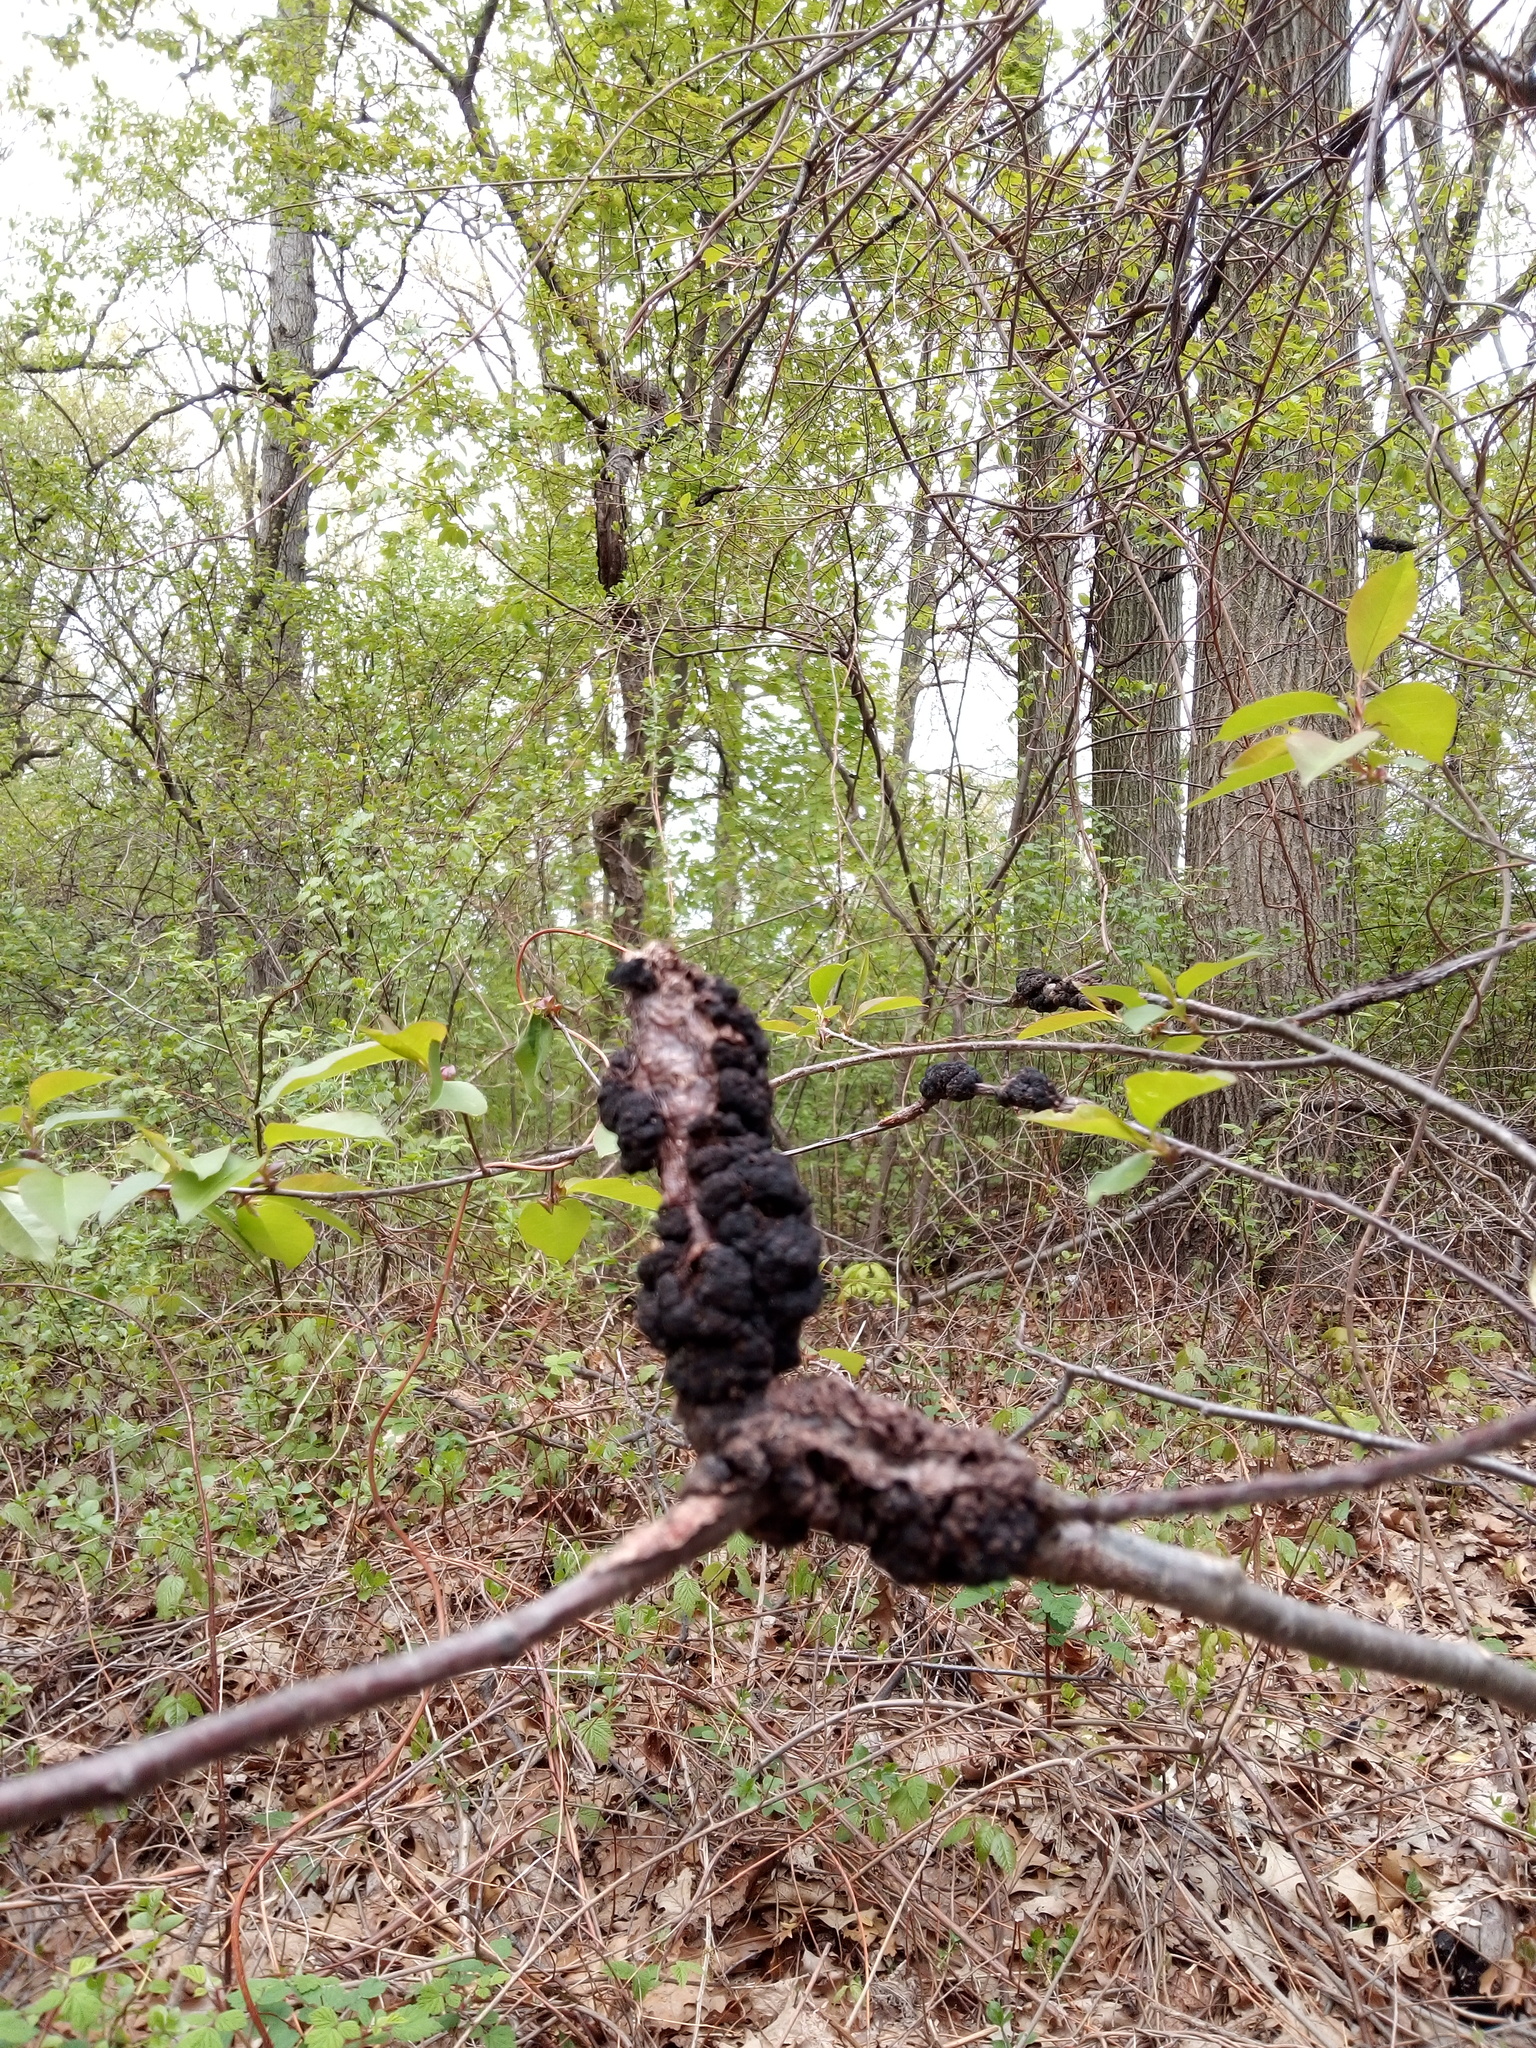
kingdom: Fungi
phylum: Ascomycota
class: Dothideomycetes
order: Venturiales
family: Venturiaceae
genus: Apiosporina
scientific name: Apiosporina morbosa
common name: Black knot
